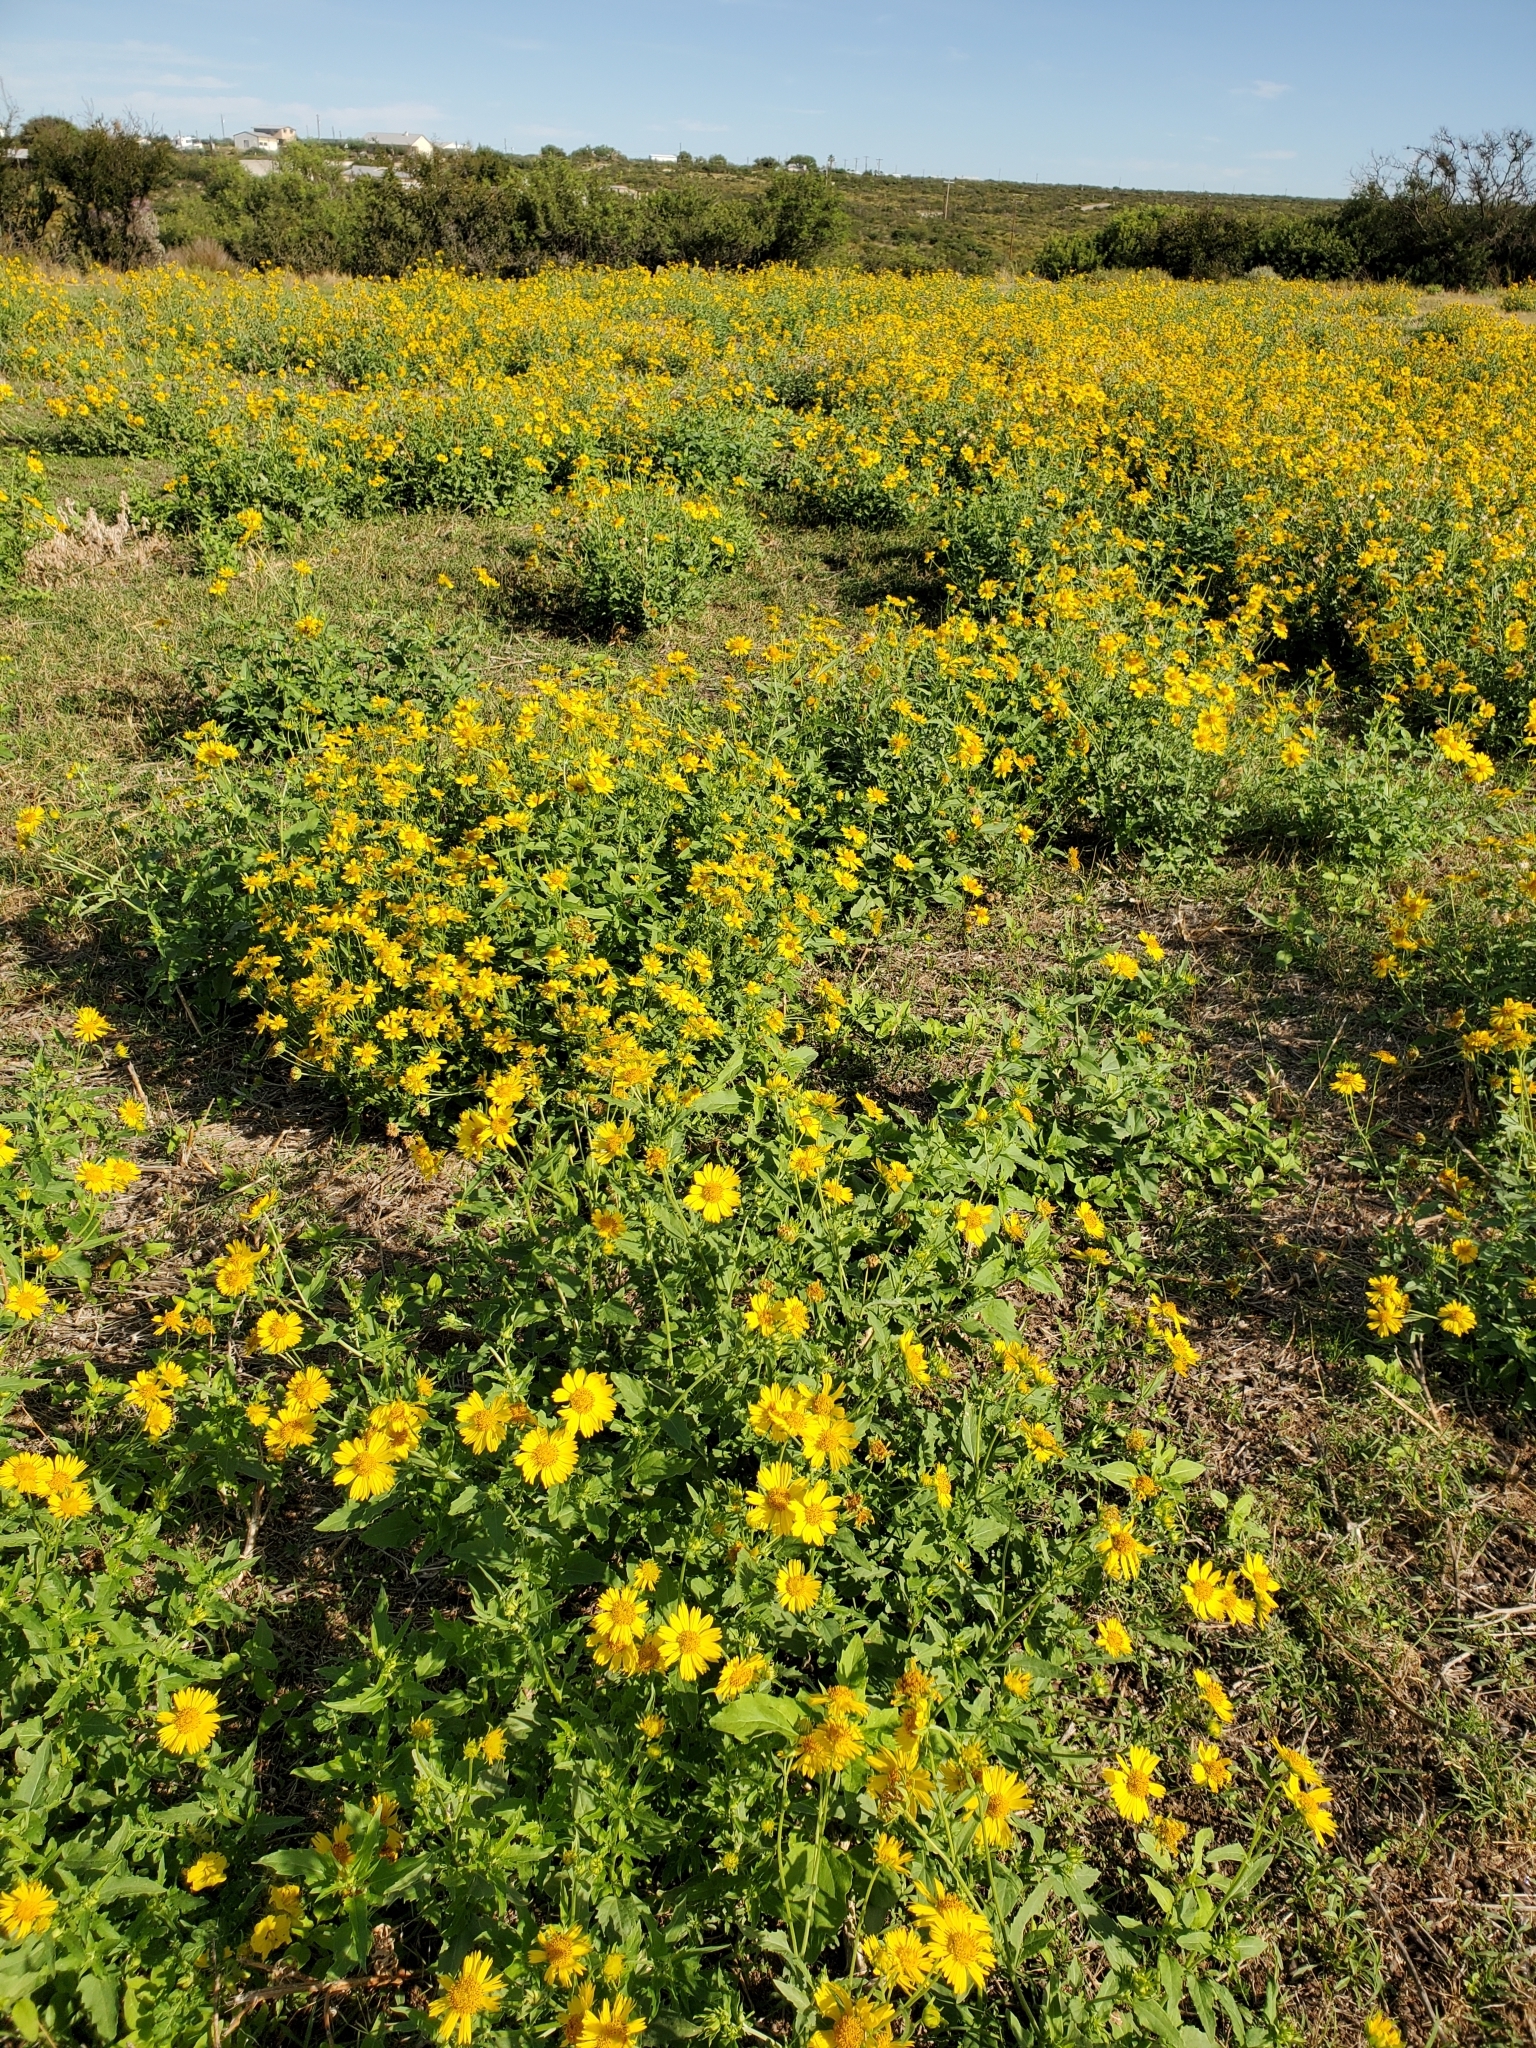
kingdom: Plantae
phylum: Tracheophyta
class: Magnoliopsida
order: Asterales
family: Asteraceae
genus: Verbesina
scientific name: Verbesina encelioides
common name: Golden crownbeard
